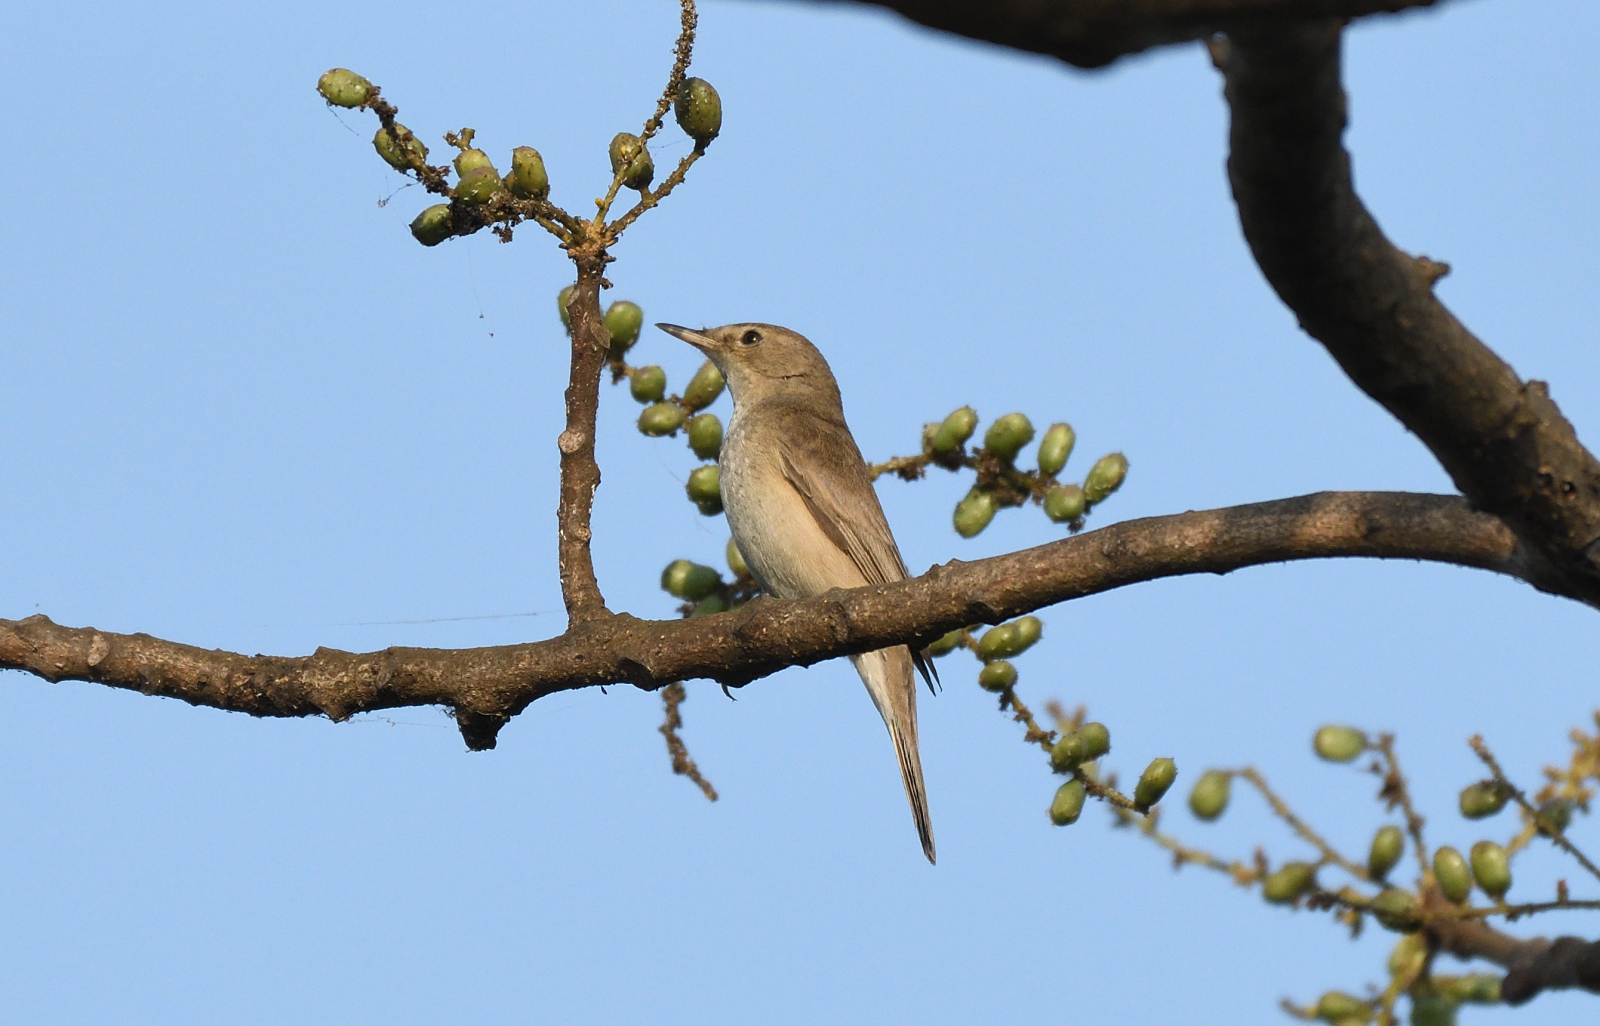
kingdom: Animalia
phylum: Chordata
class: Aves
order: Passeriformes
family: Acrocephalidae
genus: Iduna
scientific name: Iduna rama
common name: Sykes's warbler
